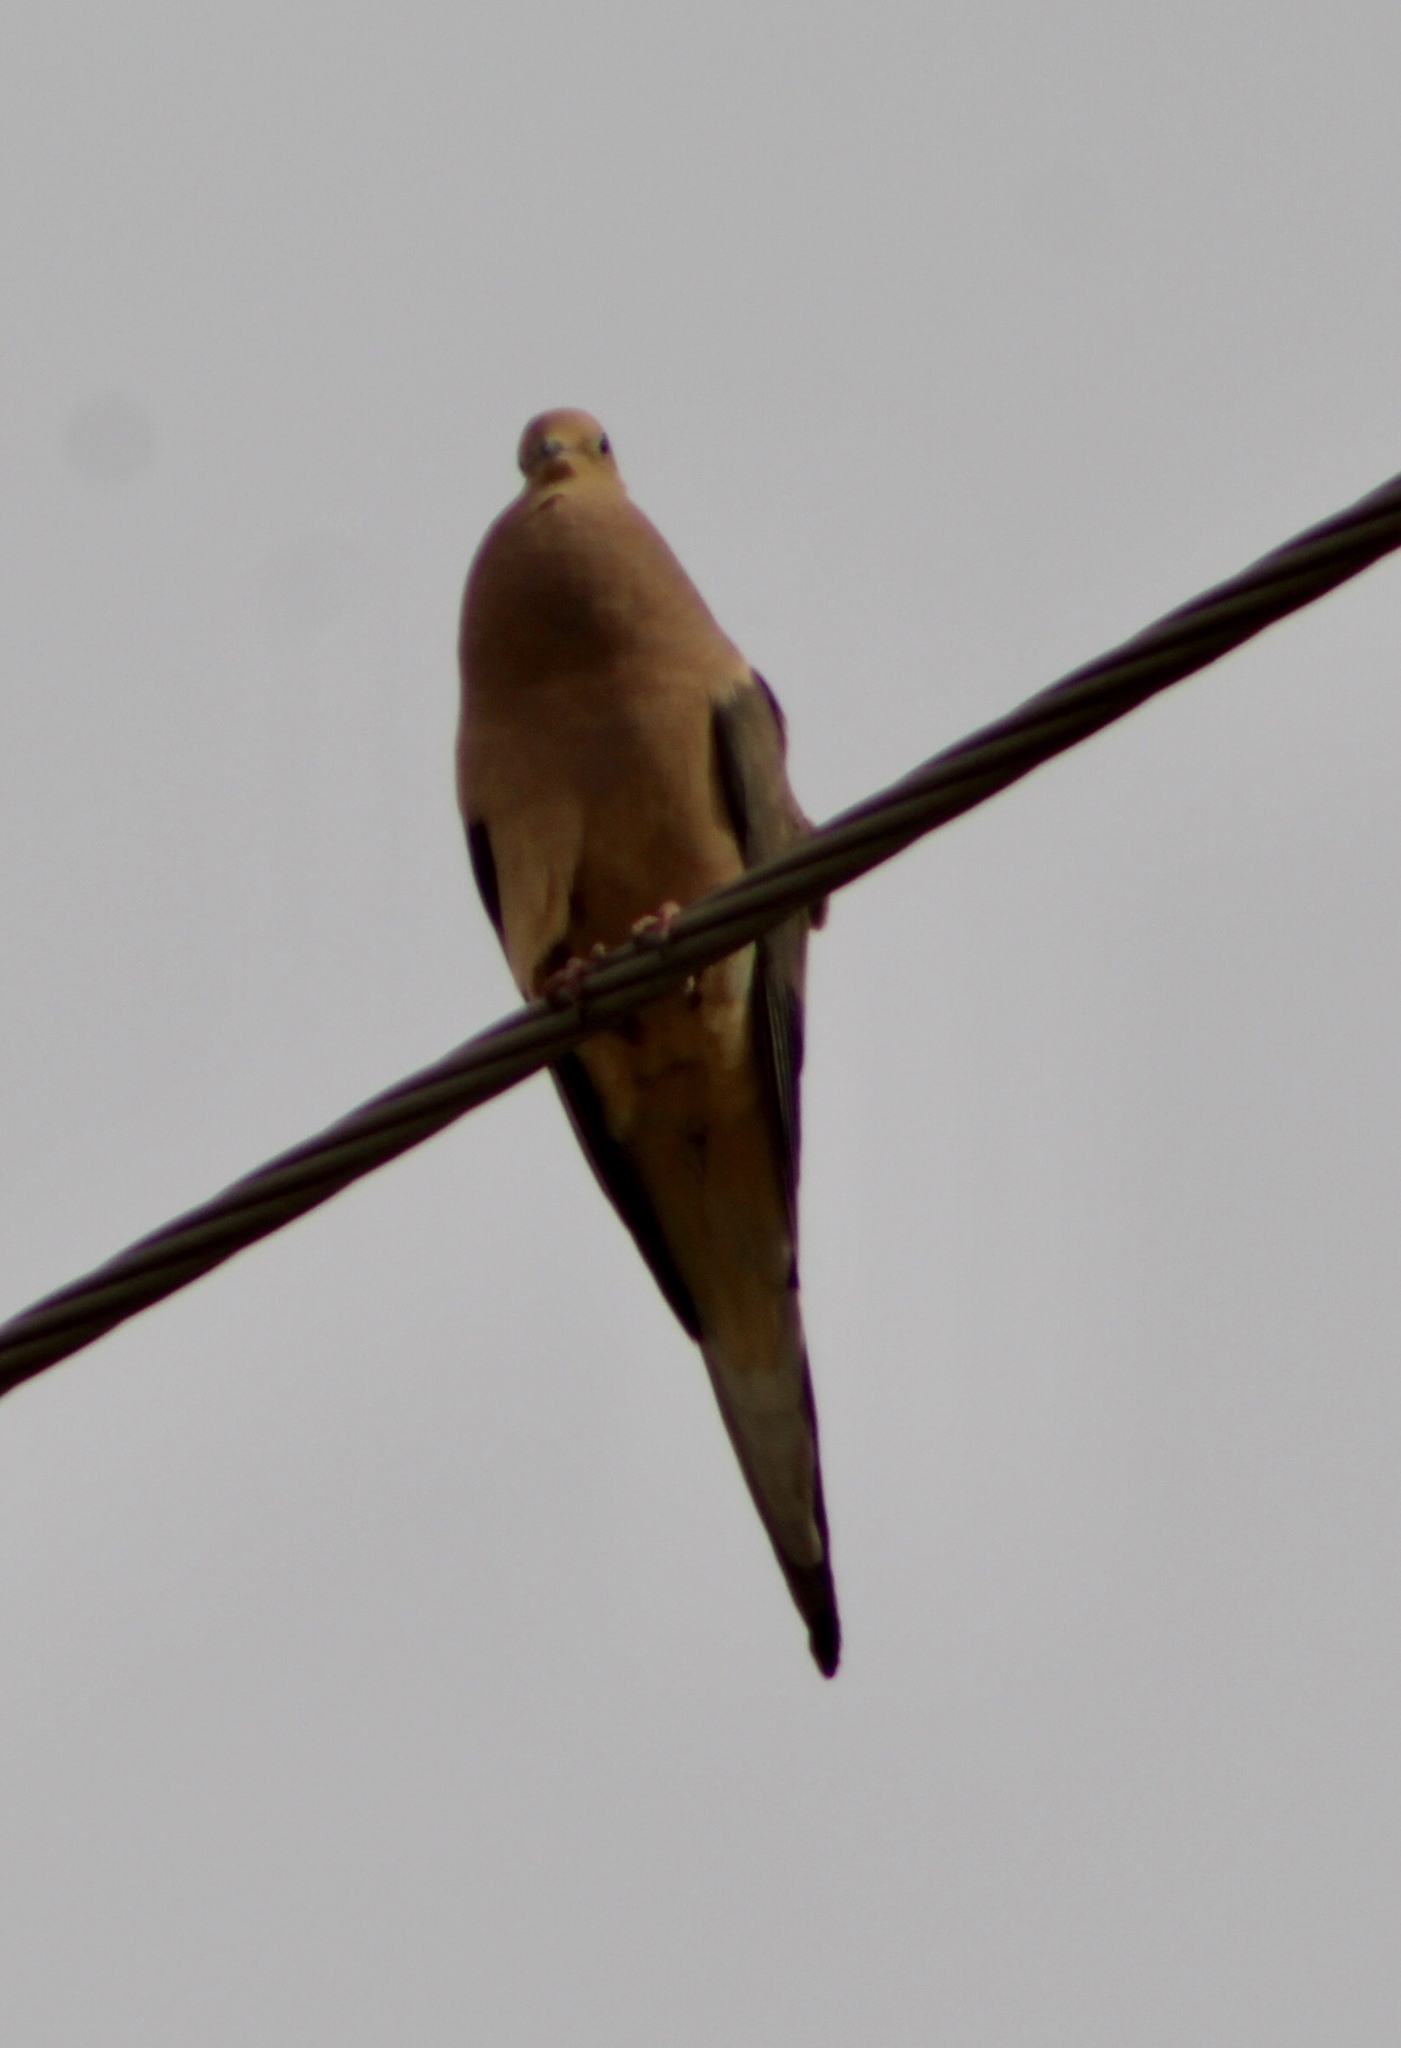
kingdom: Animalia
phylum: Chordata
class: Aves
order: Columbiformes
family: Columbidae
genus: Zenaida
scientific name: Zenaida macroura
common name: Mourning dove
